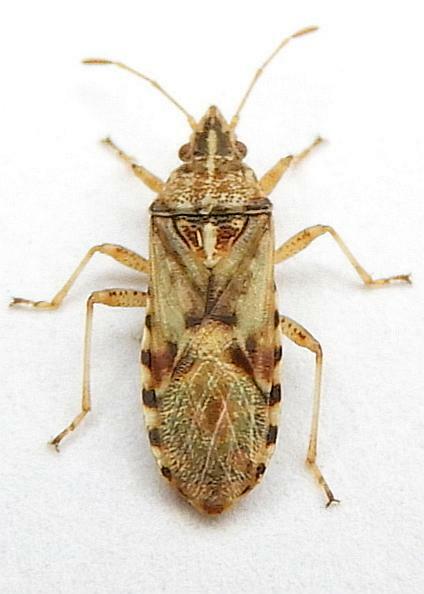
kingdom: Animalia
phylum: Arthropoda
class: Insecta
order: Hemiptera
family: Lygaeidae
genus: Belonochilus
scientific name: Belonochilus numenius
